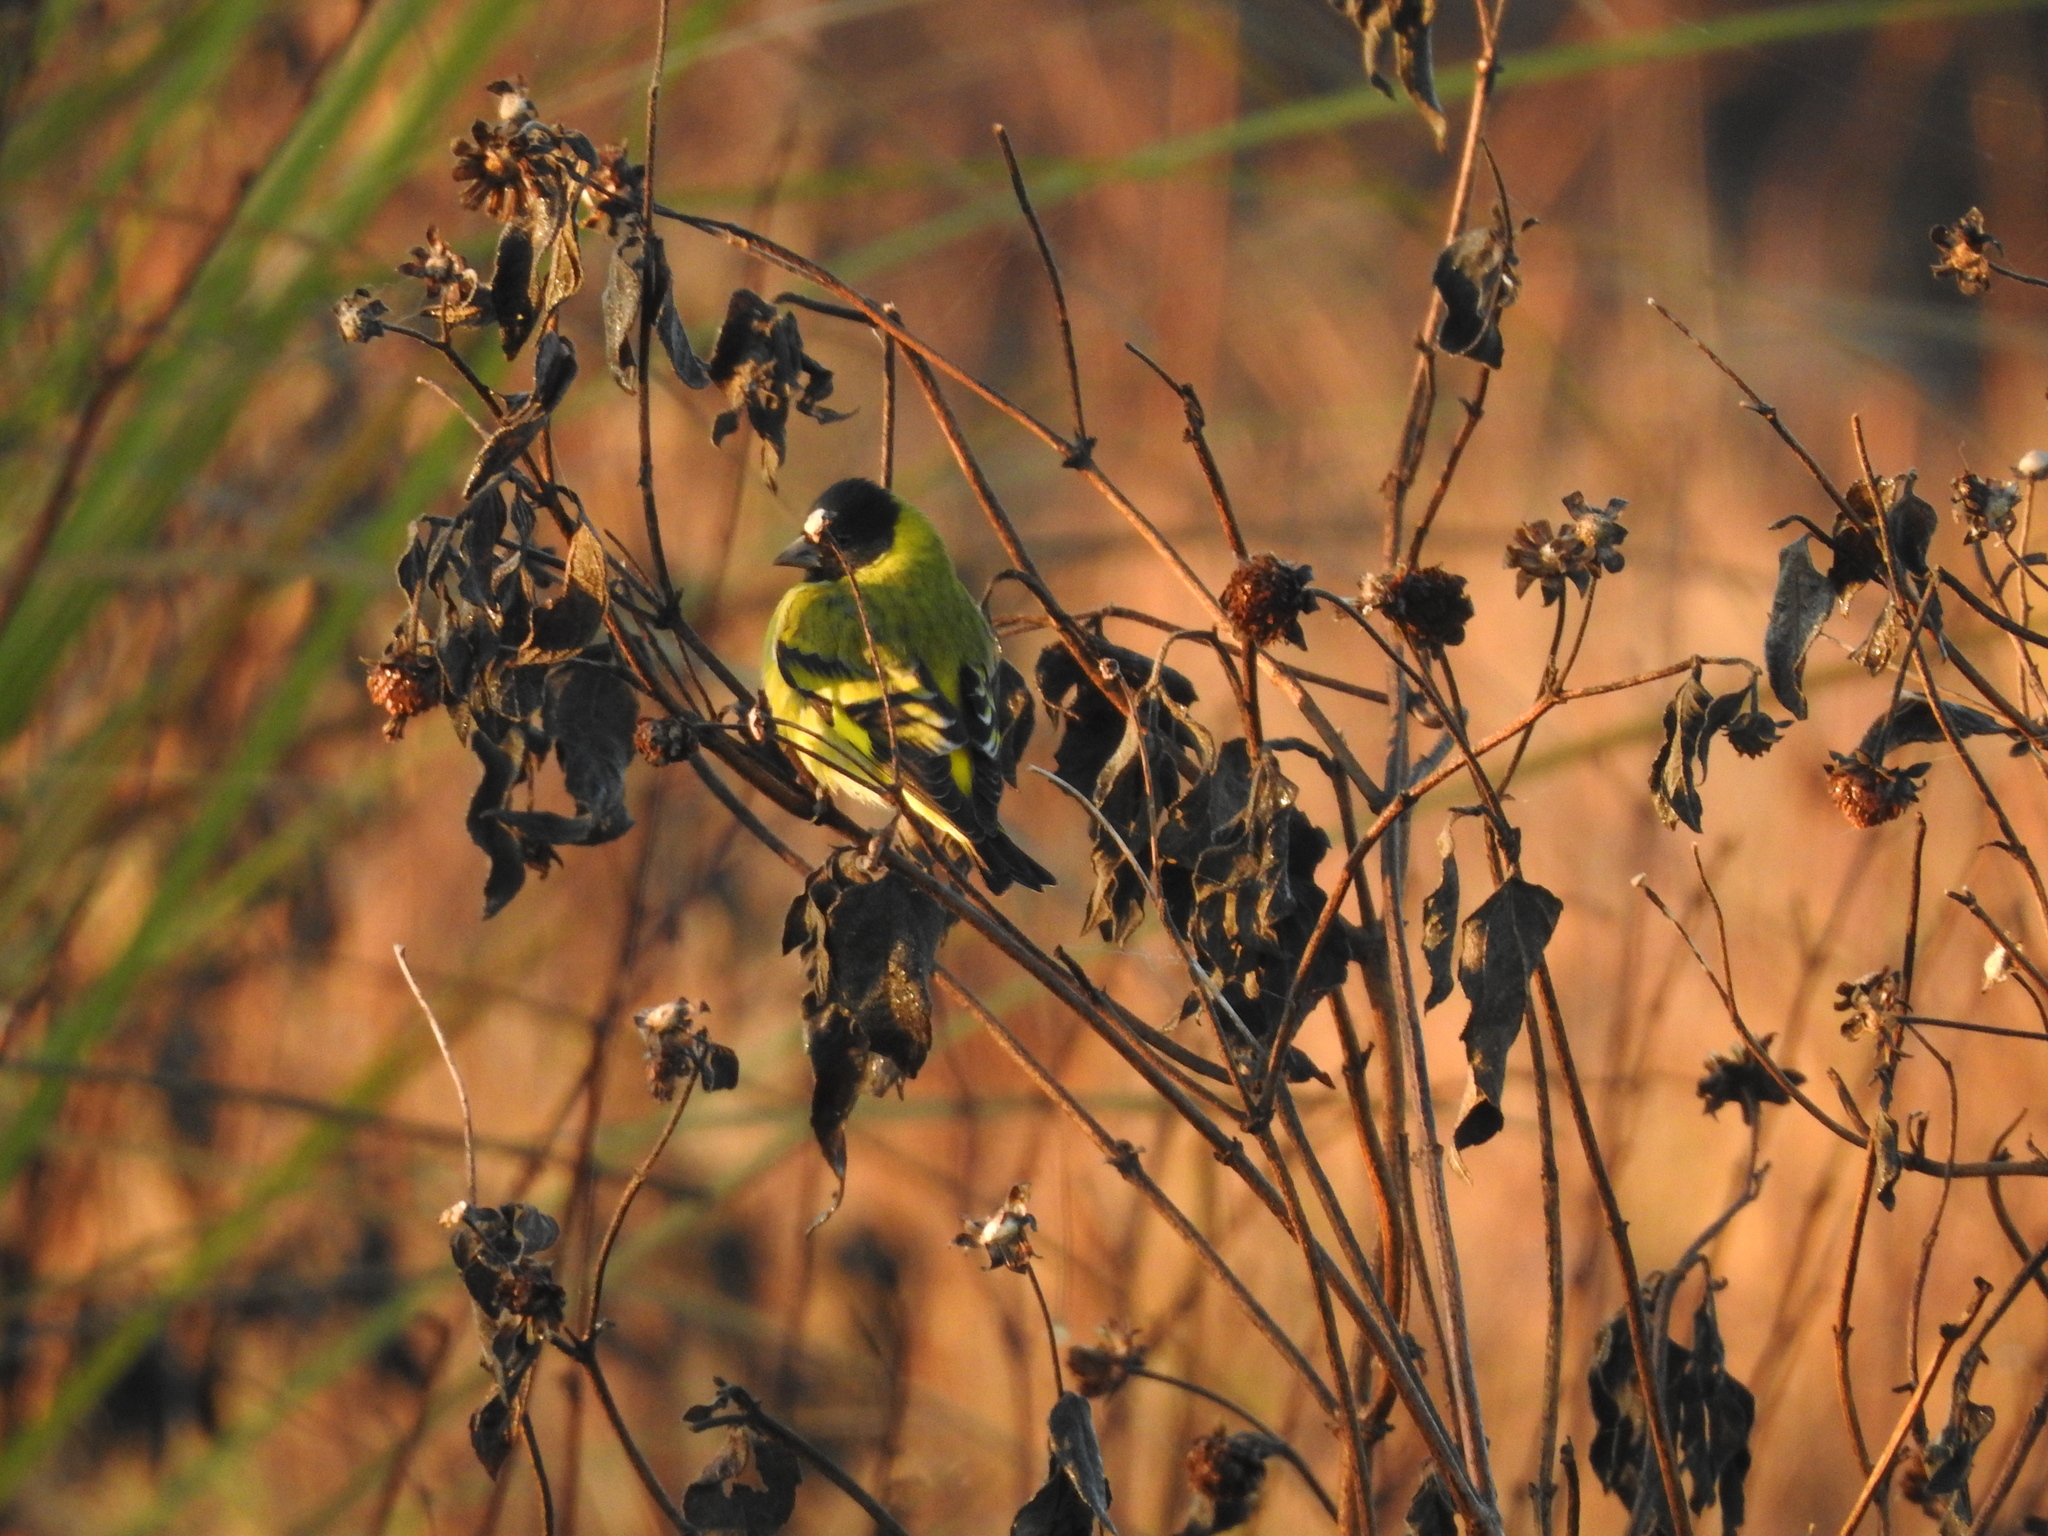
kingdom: Animalia
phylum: Chordata
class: Aves
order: Passeriformes
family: Fringillidae
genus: Spinus
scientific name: Spinus magellanicus
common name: Hooded siskin
